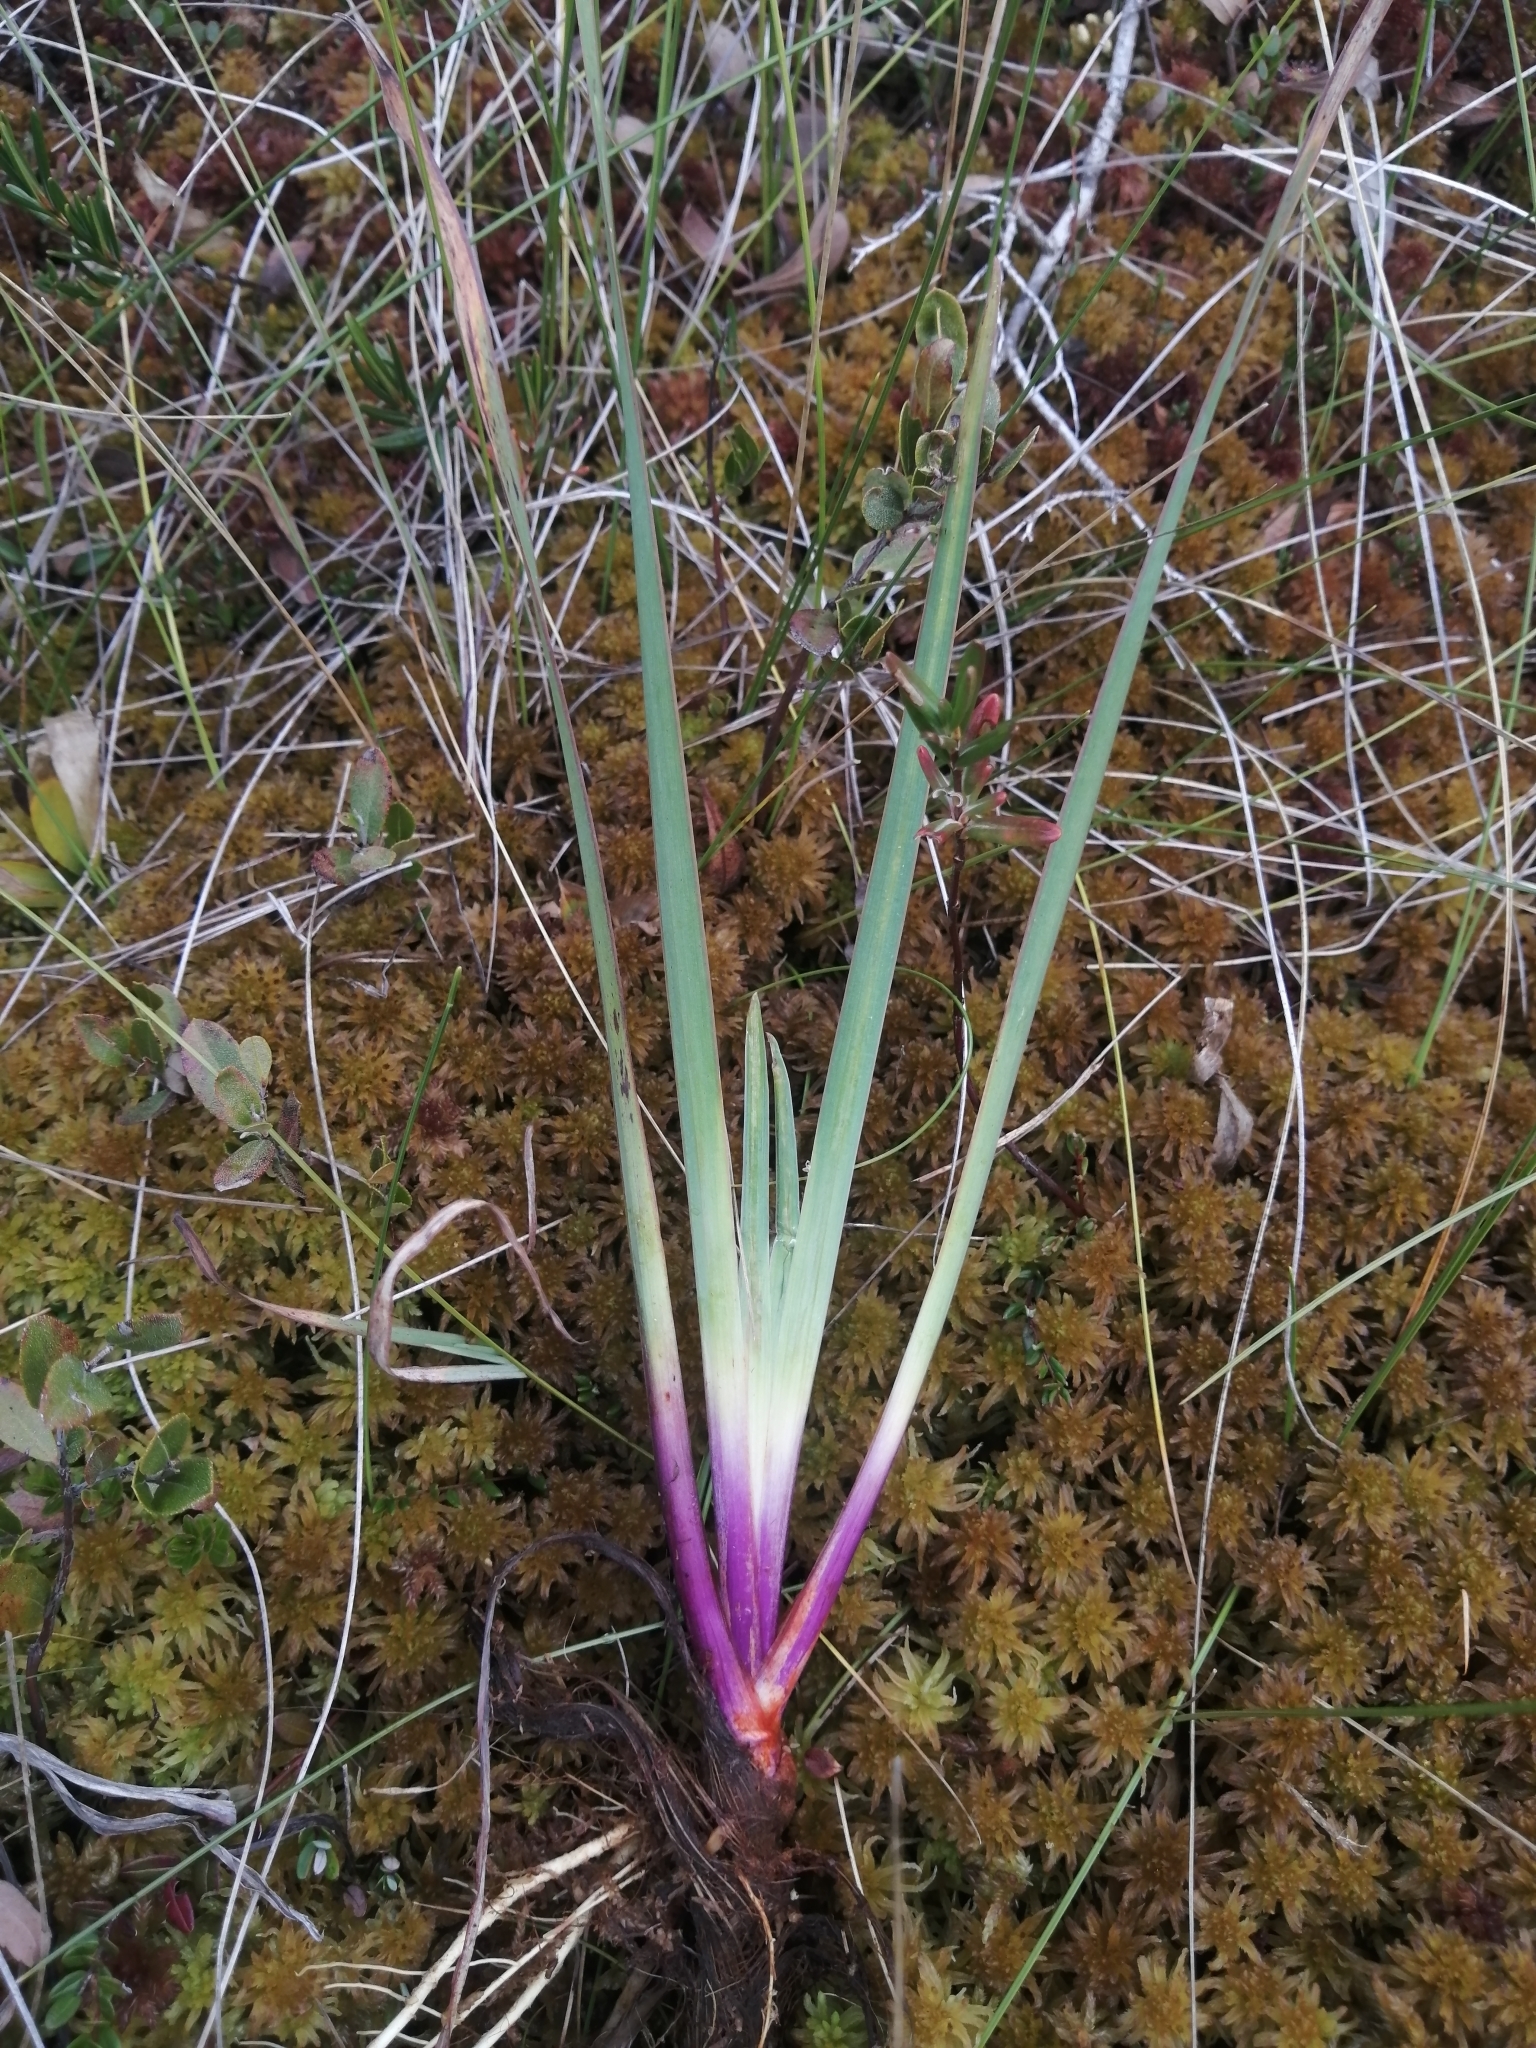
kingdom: Plantae
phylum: Tracheophyta
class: Liliopsida
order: Asparagales
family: Iridaceae
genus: Iris
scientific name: Iris versicolor
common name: Purple iris
